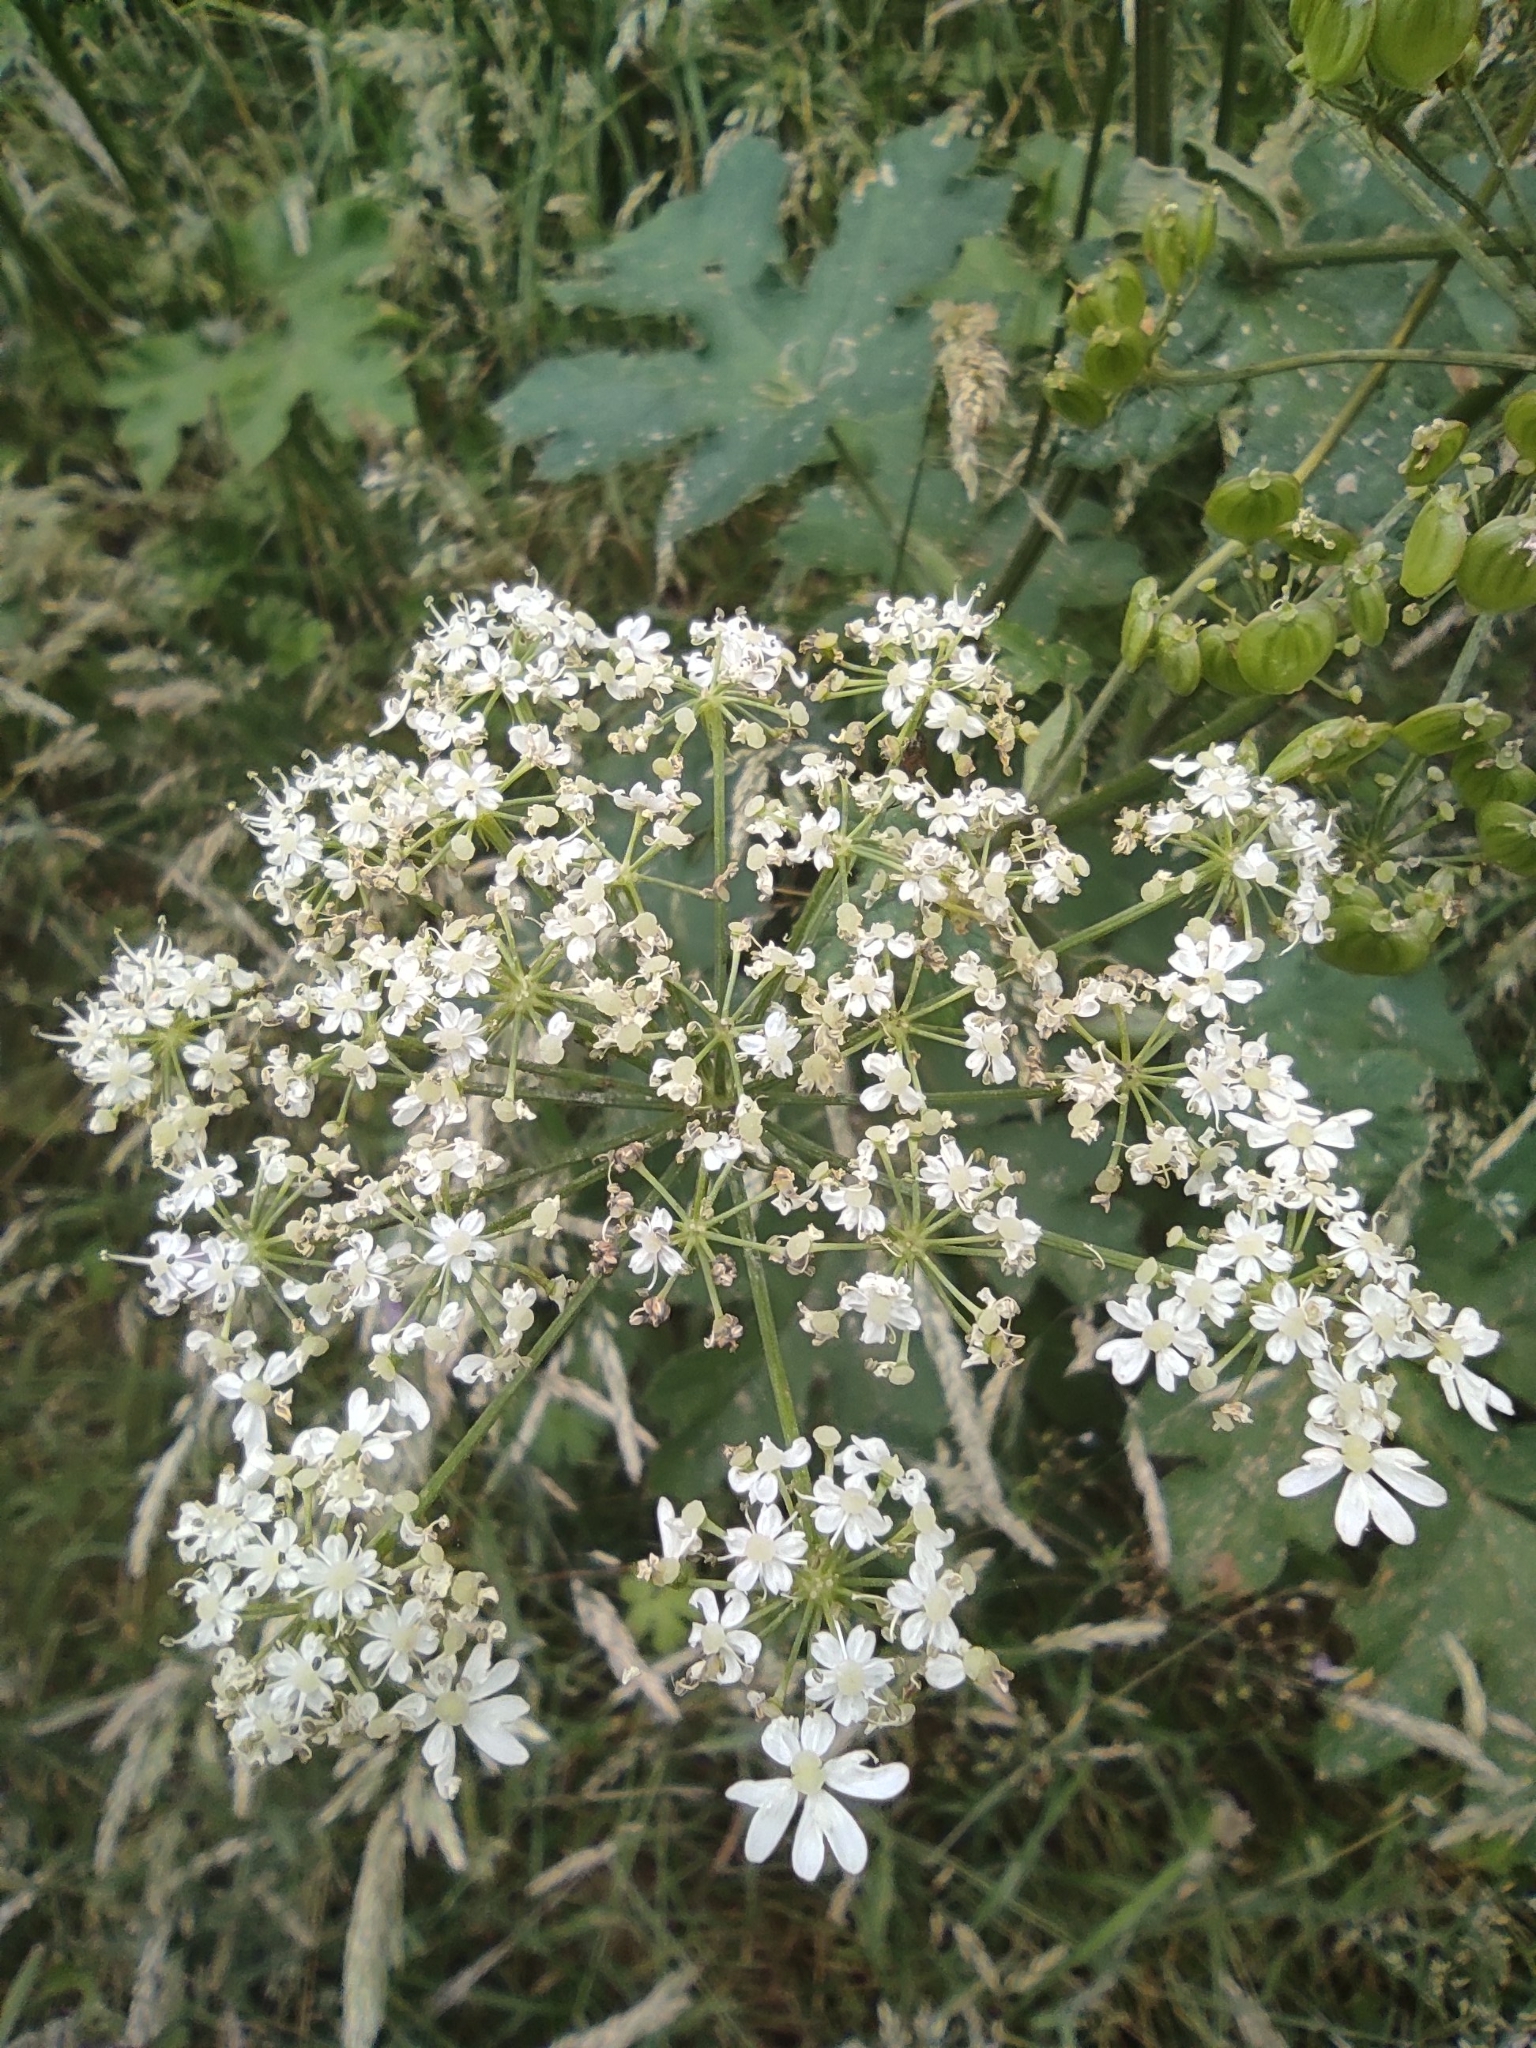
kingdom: Plantae
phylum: Tracheophyta
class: Magnoliopsida
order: Apiales
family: Apiaceae
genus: Heracleum
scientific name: Heracleum sphondylium
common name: Hogweed
